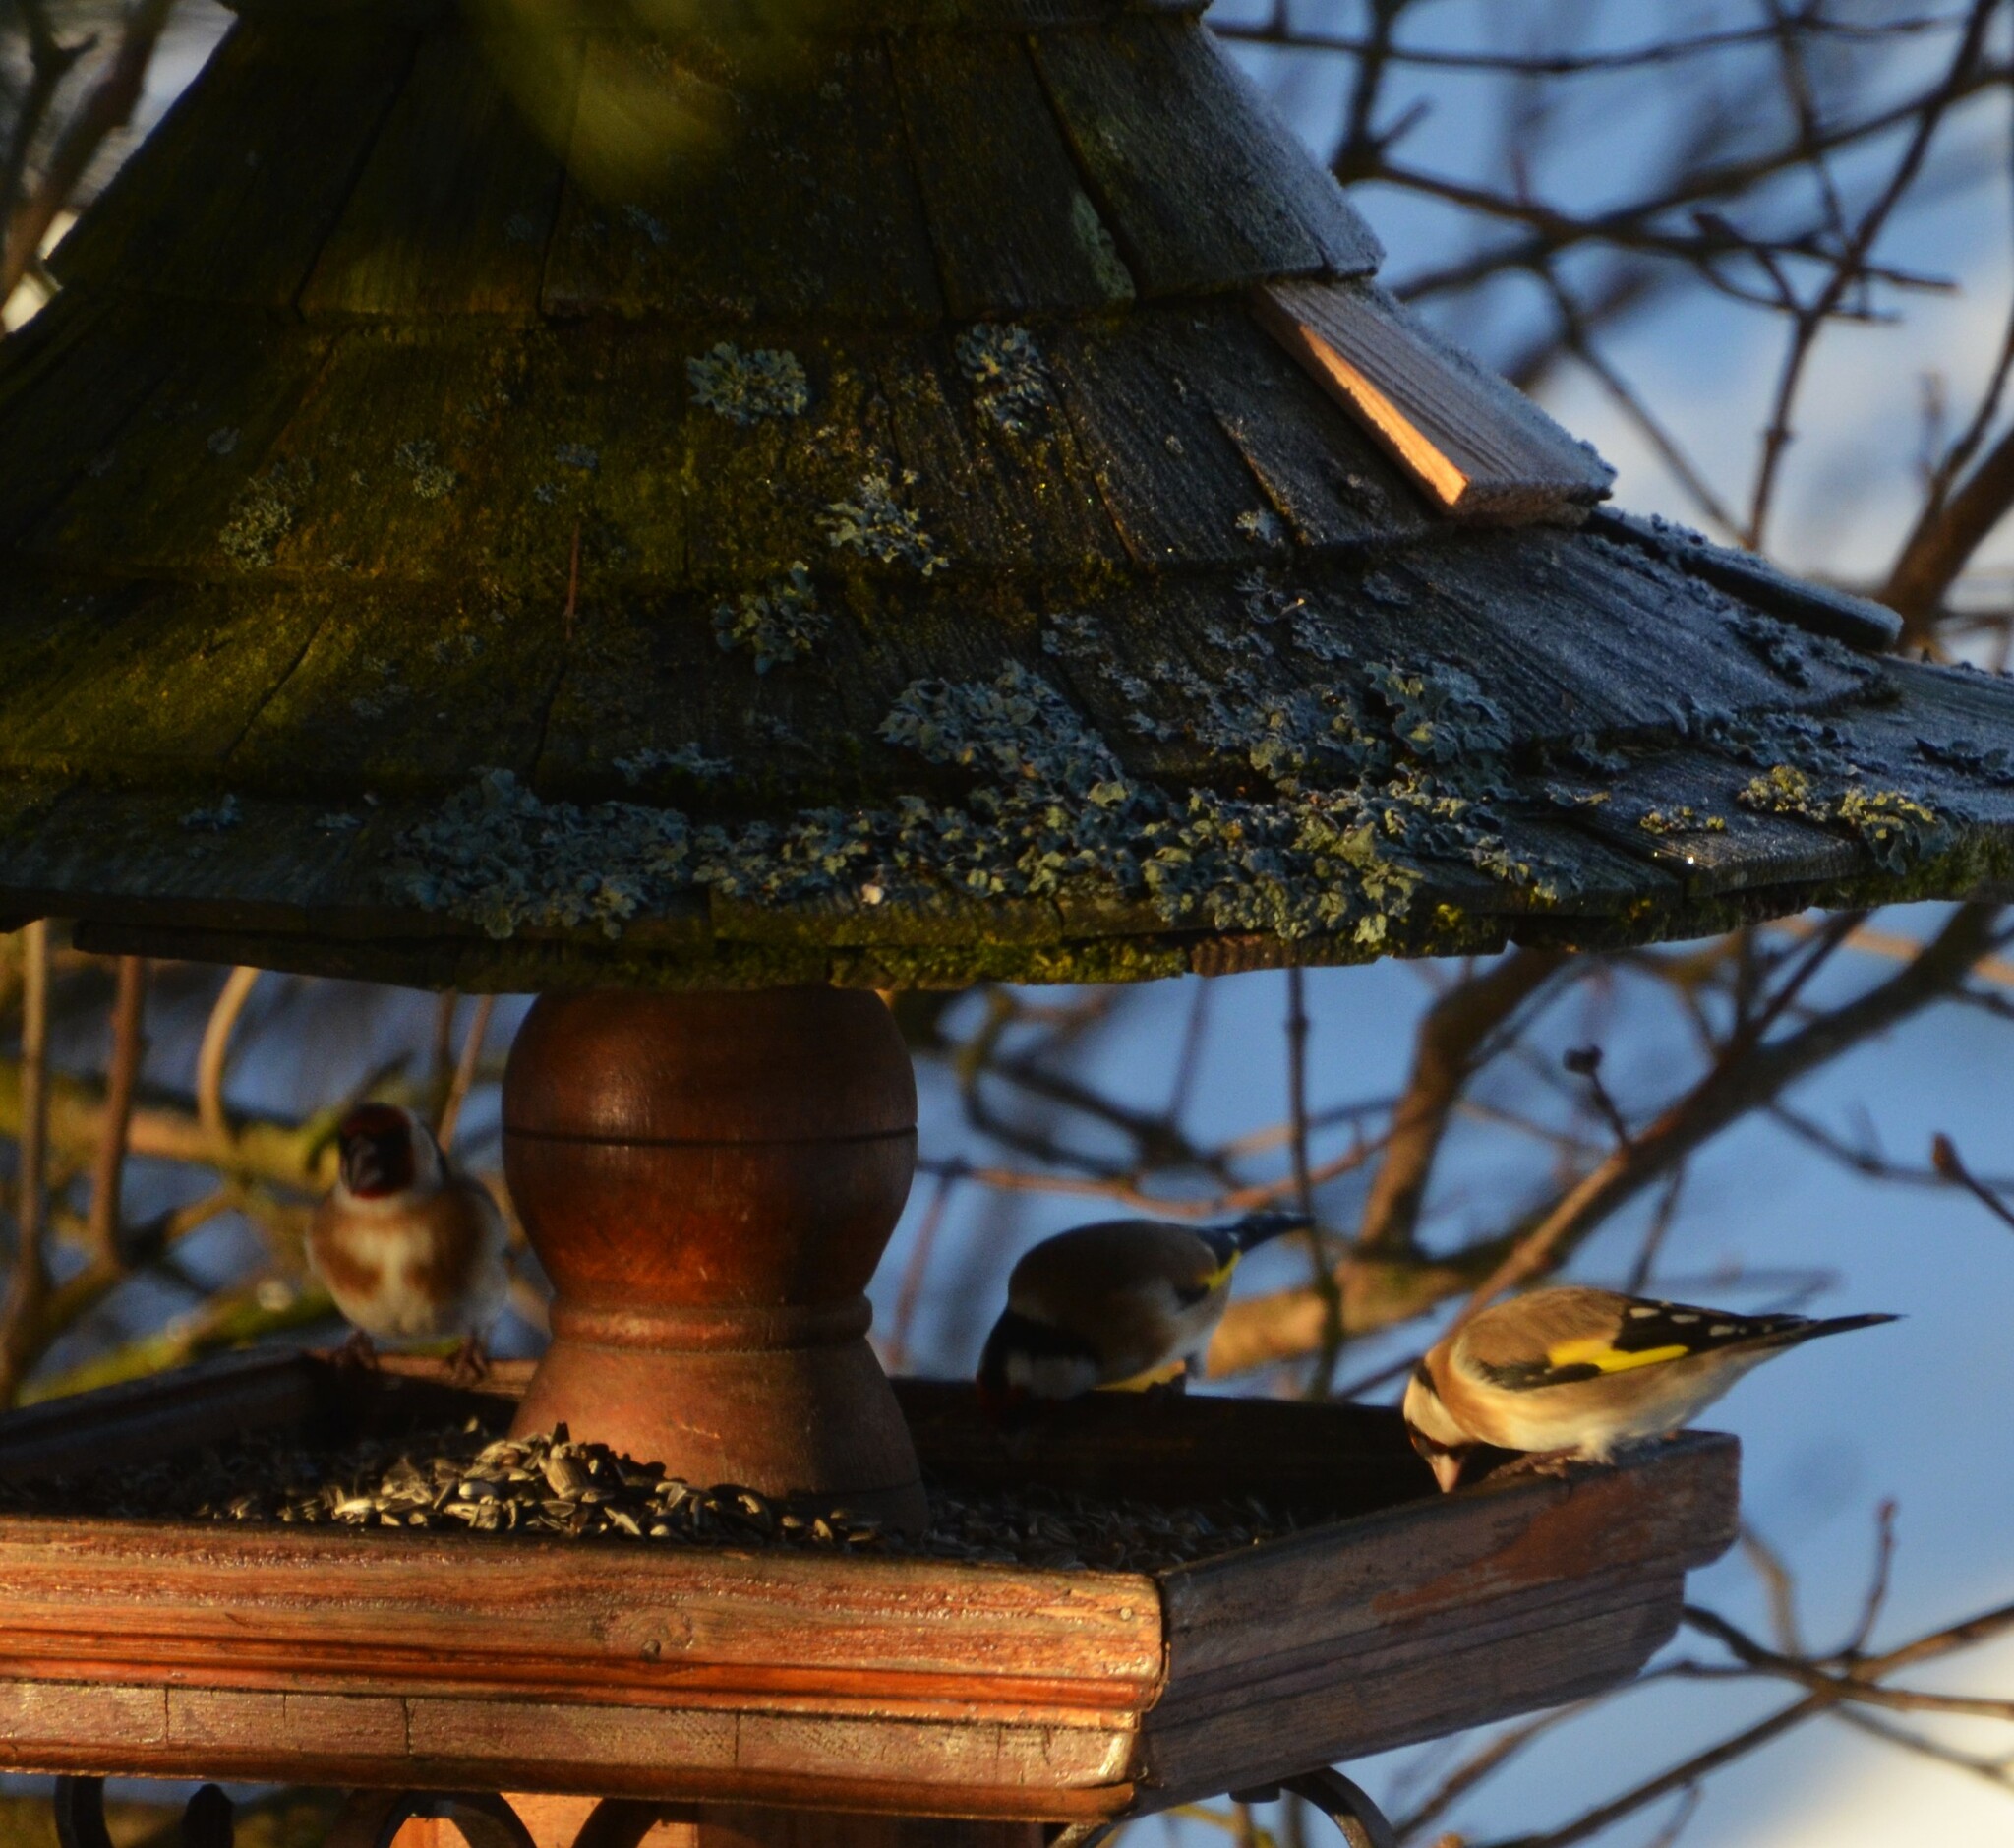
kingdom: Animalia
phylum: Chordata
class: Aves
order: Passeriformes
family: Fringillidae
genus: Carduelis
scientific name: Carduelis carduelis
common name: European goldfinch
